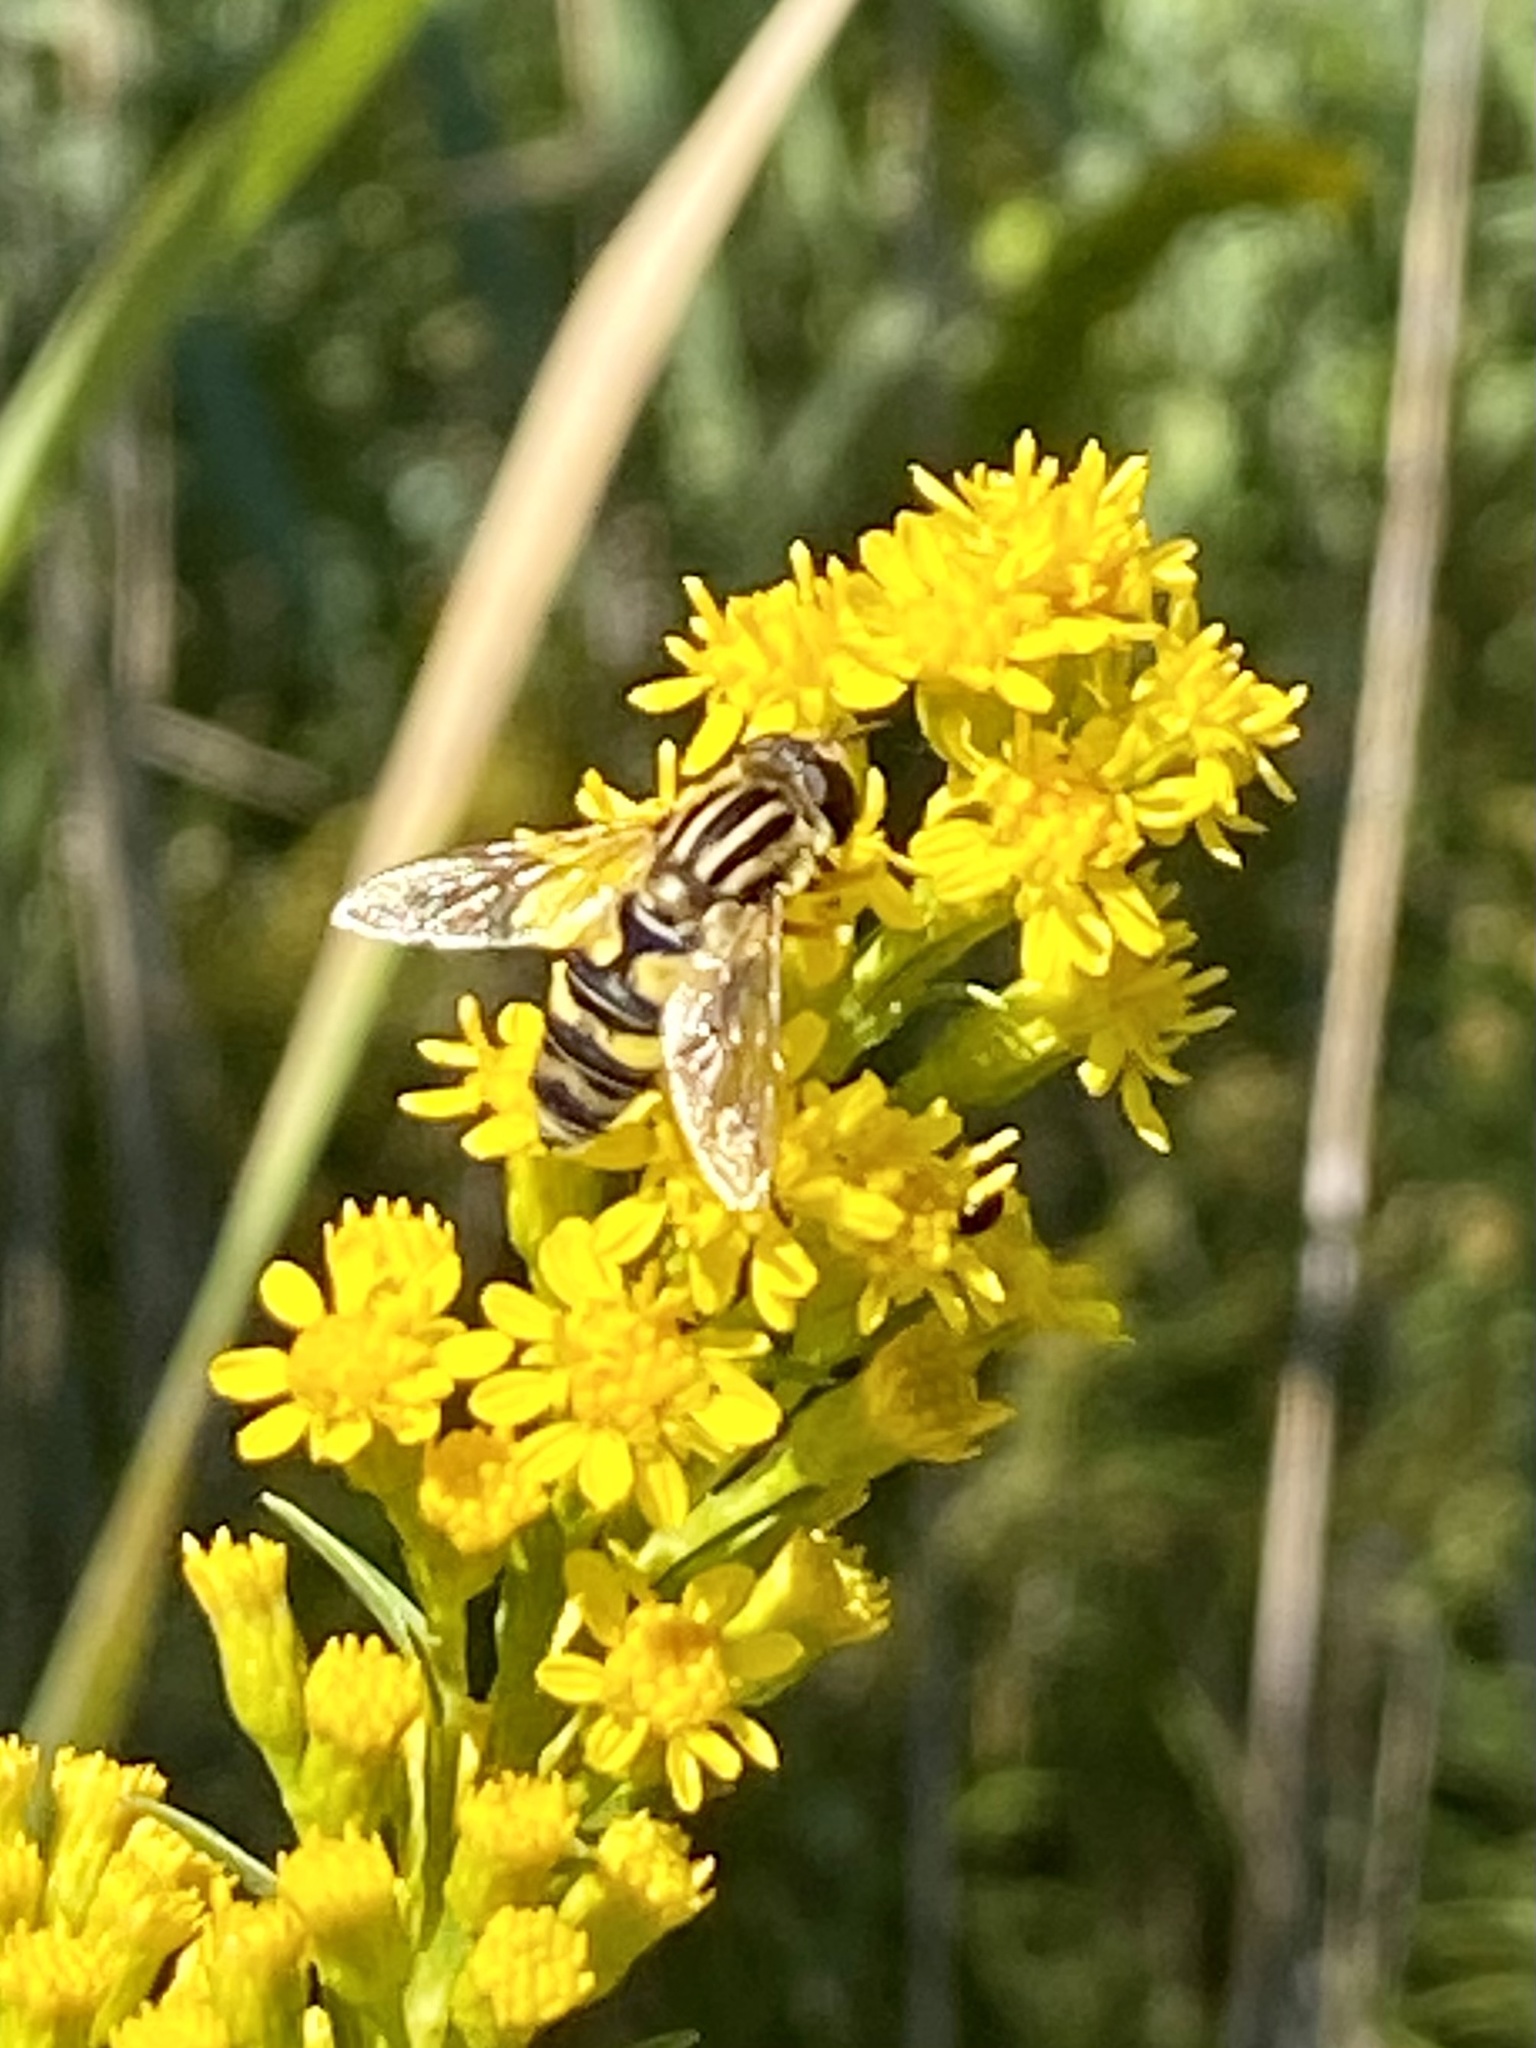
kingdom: Animalia
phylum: Arthropoda
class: Insecta
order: Diptera
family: Syrphidae
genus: Helophilus
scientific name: Helophilus latifrons
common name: Broad-headed marsh fly
